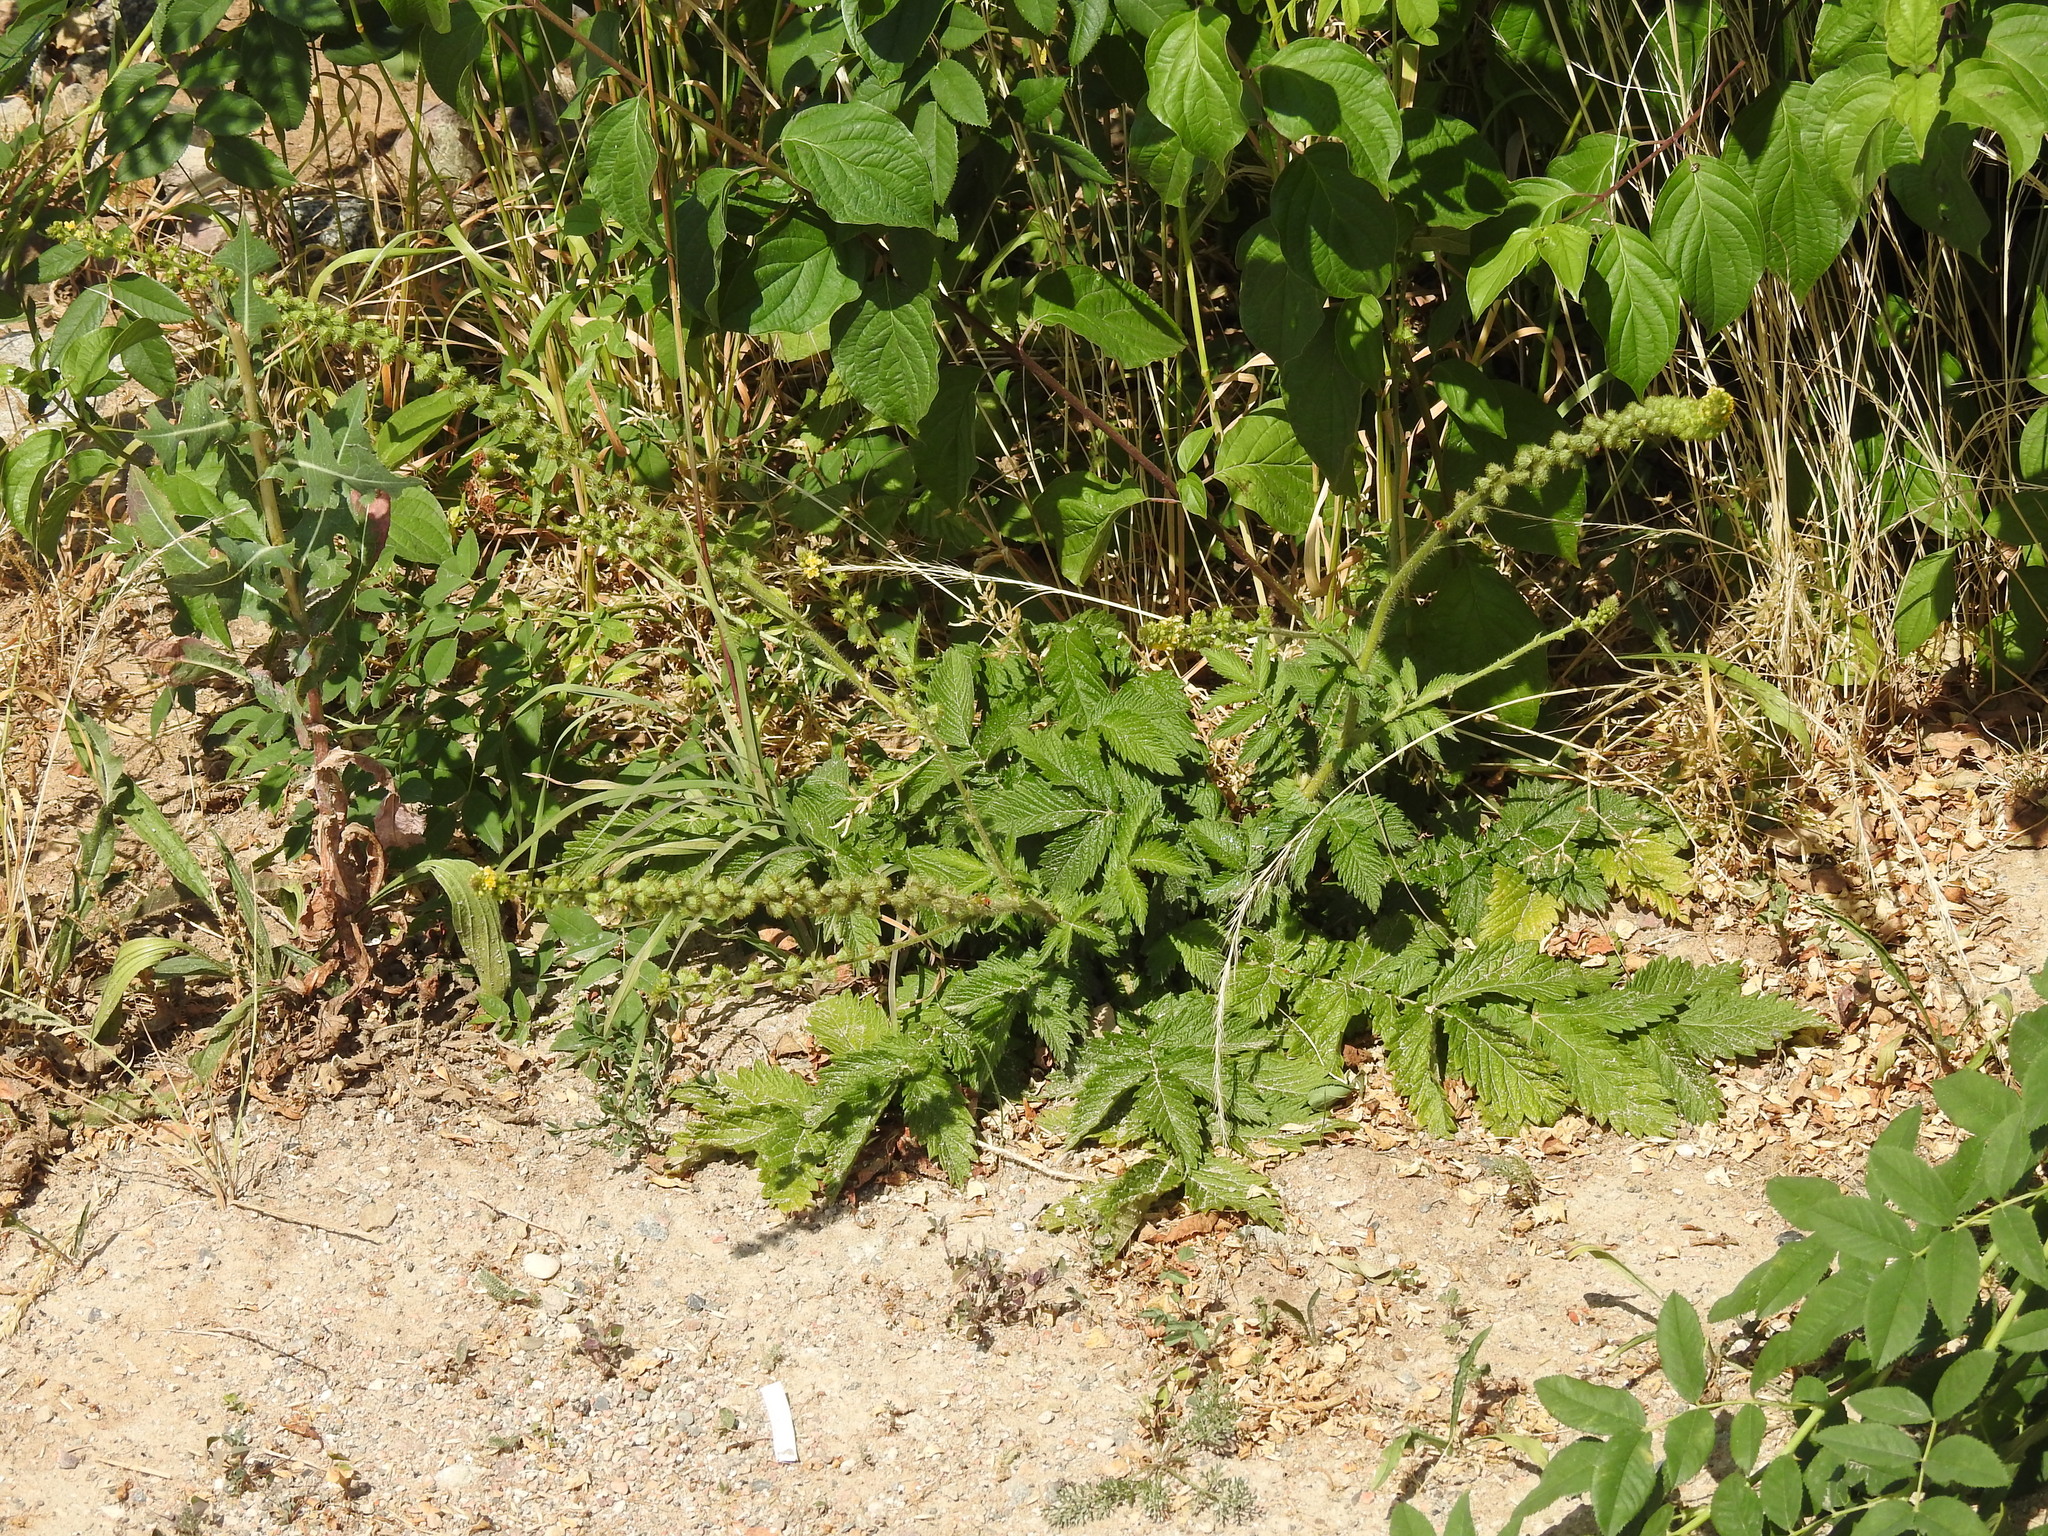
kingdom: Plantae
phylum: Tracheophyta
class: Magnoliopsida
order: Rosales
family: Rosaceae
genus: Agrimonia
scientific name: Agrimonia eupatoria
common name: Agrimony
